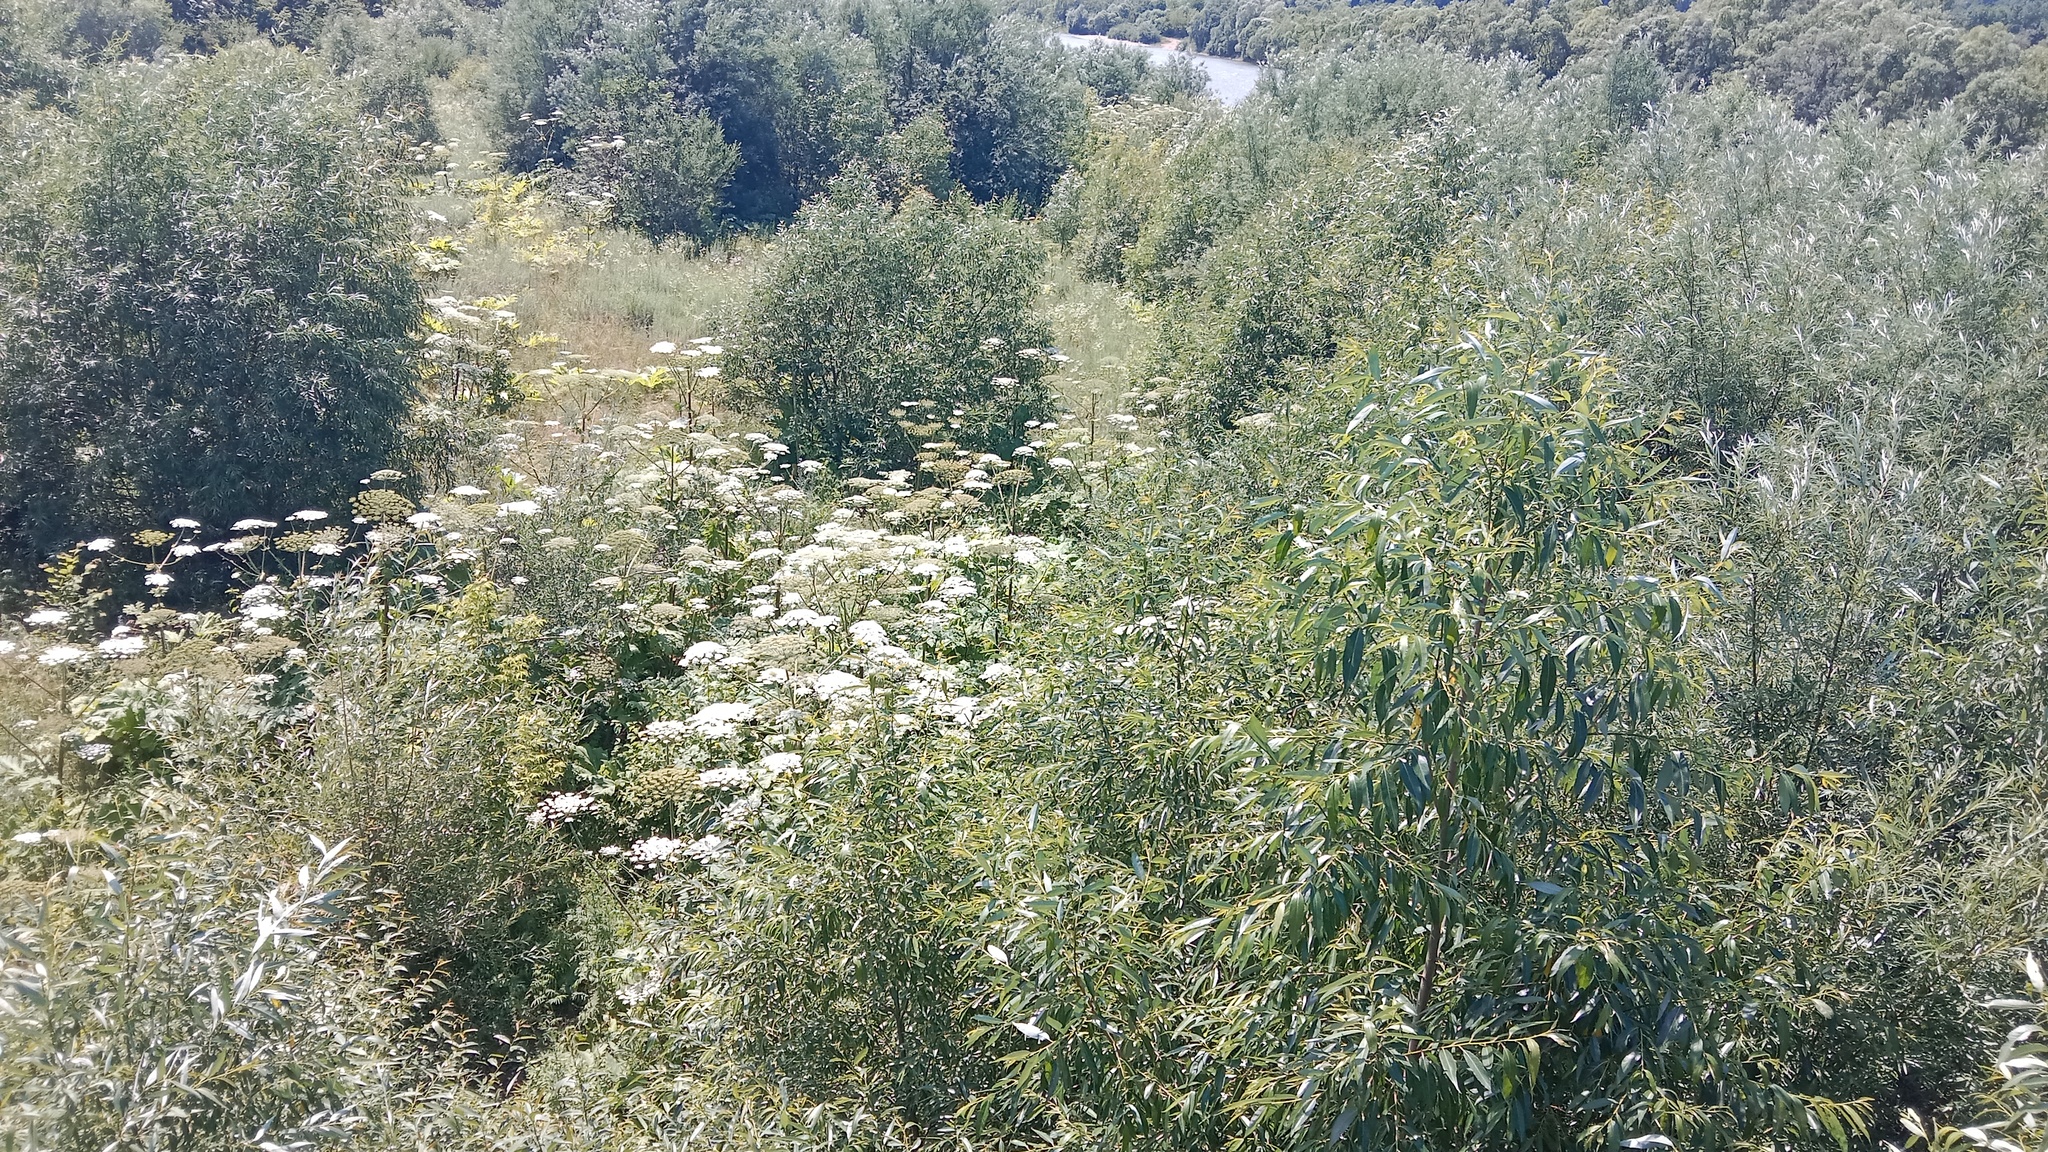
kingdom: Plantae
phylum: Tracheophyta
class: Magnoliopsida
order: Apiales
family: Apiaceae
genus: Heracleum
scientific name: Heracleum sosnowskyi
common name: Sosnowsky's hogweed
